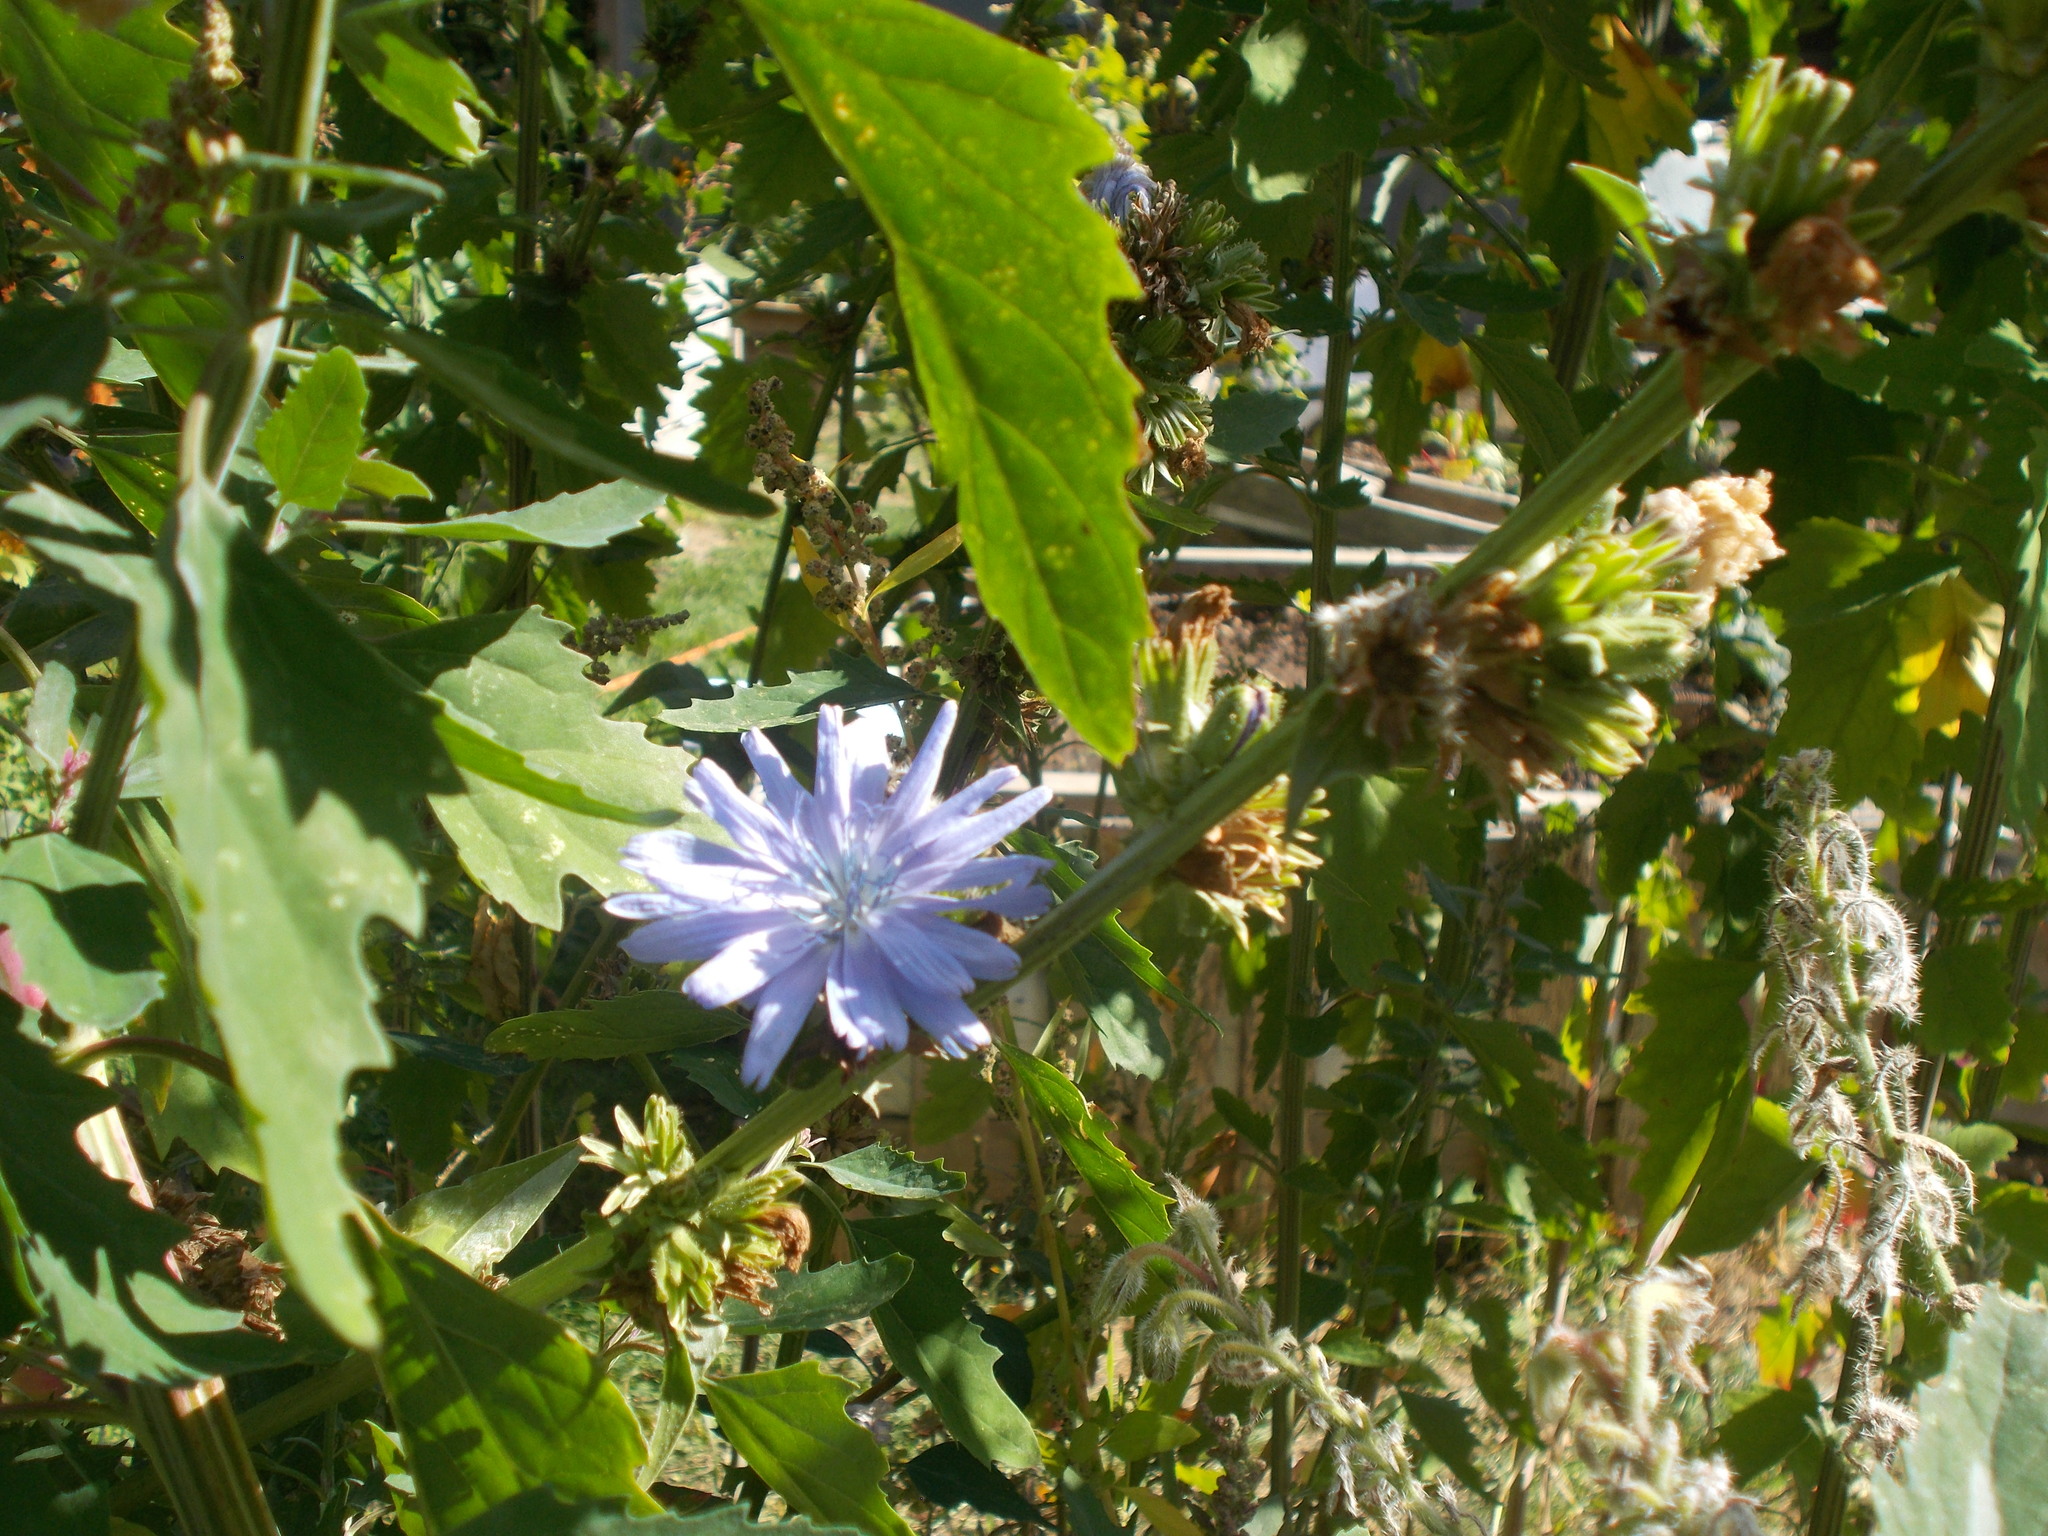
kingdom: Plantae
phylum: Tracheophyta
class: Magnoliopsida
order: Asterales
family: Asteraceae
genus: Cichorium
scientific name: Cichorium intybus
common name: Chicory
